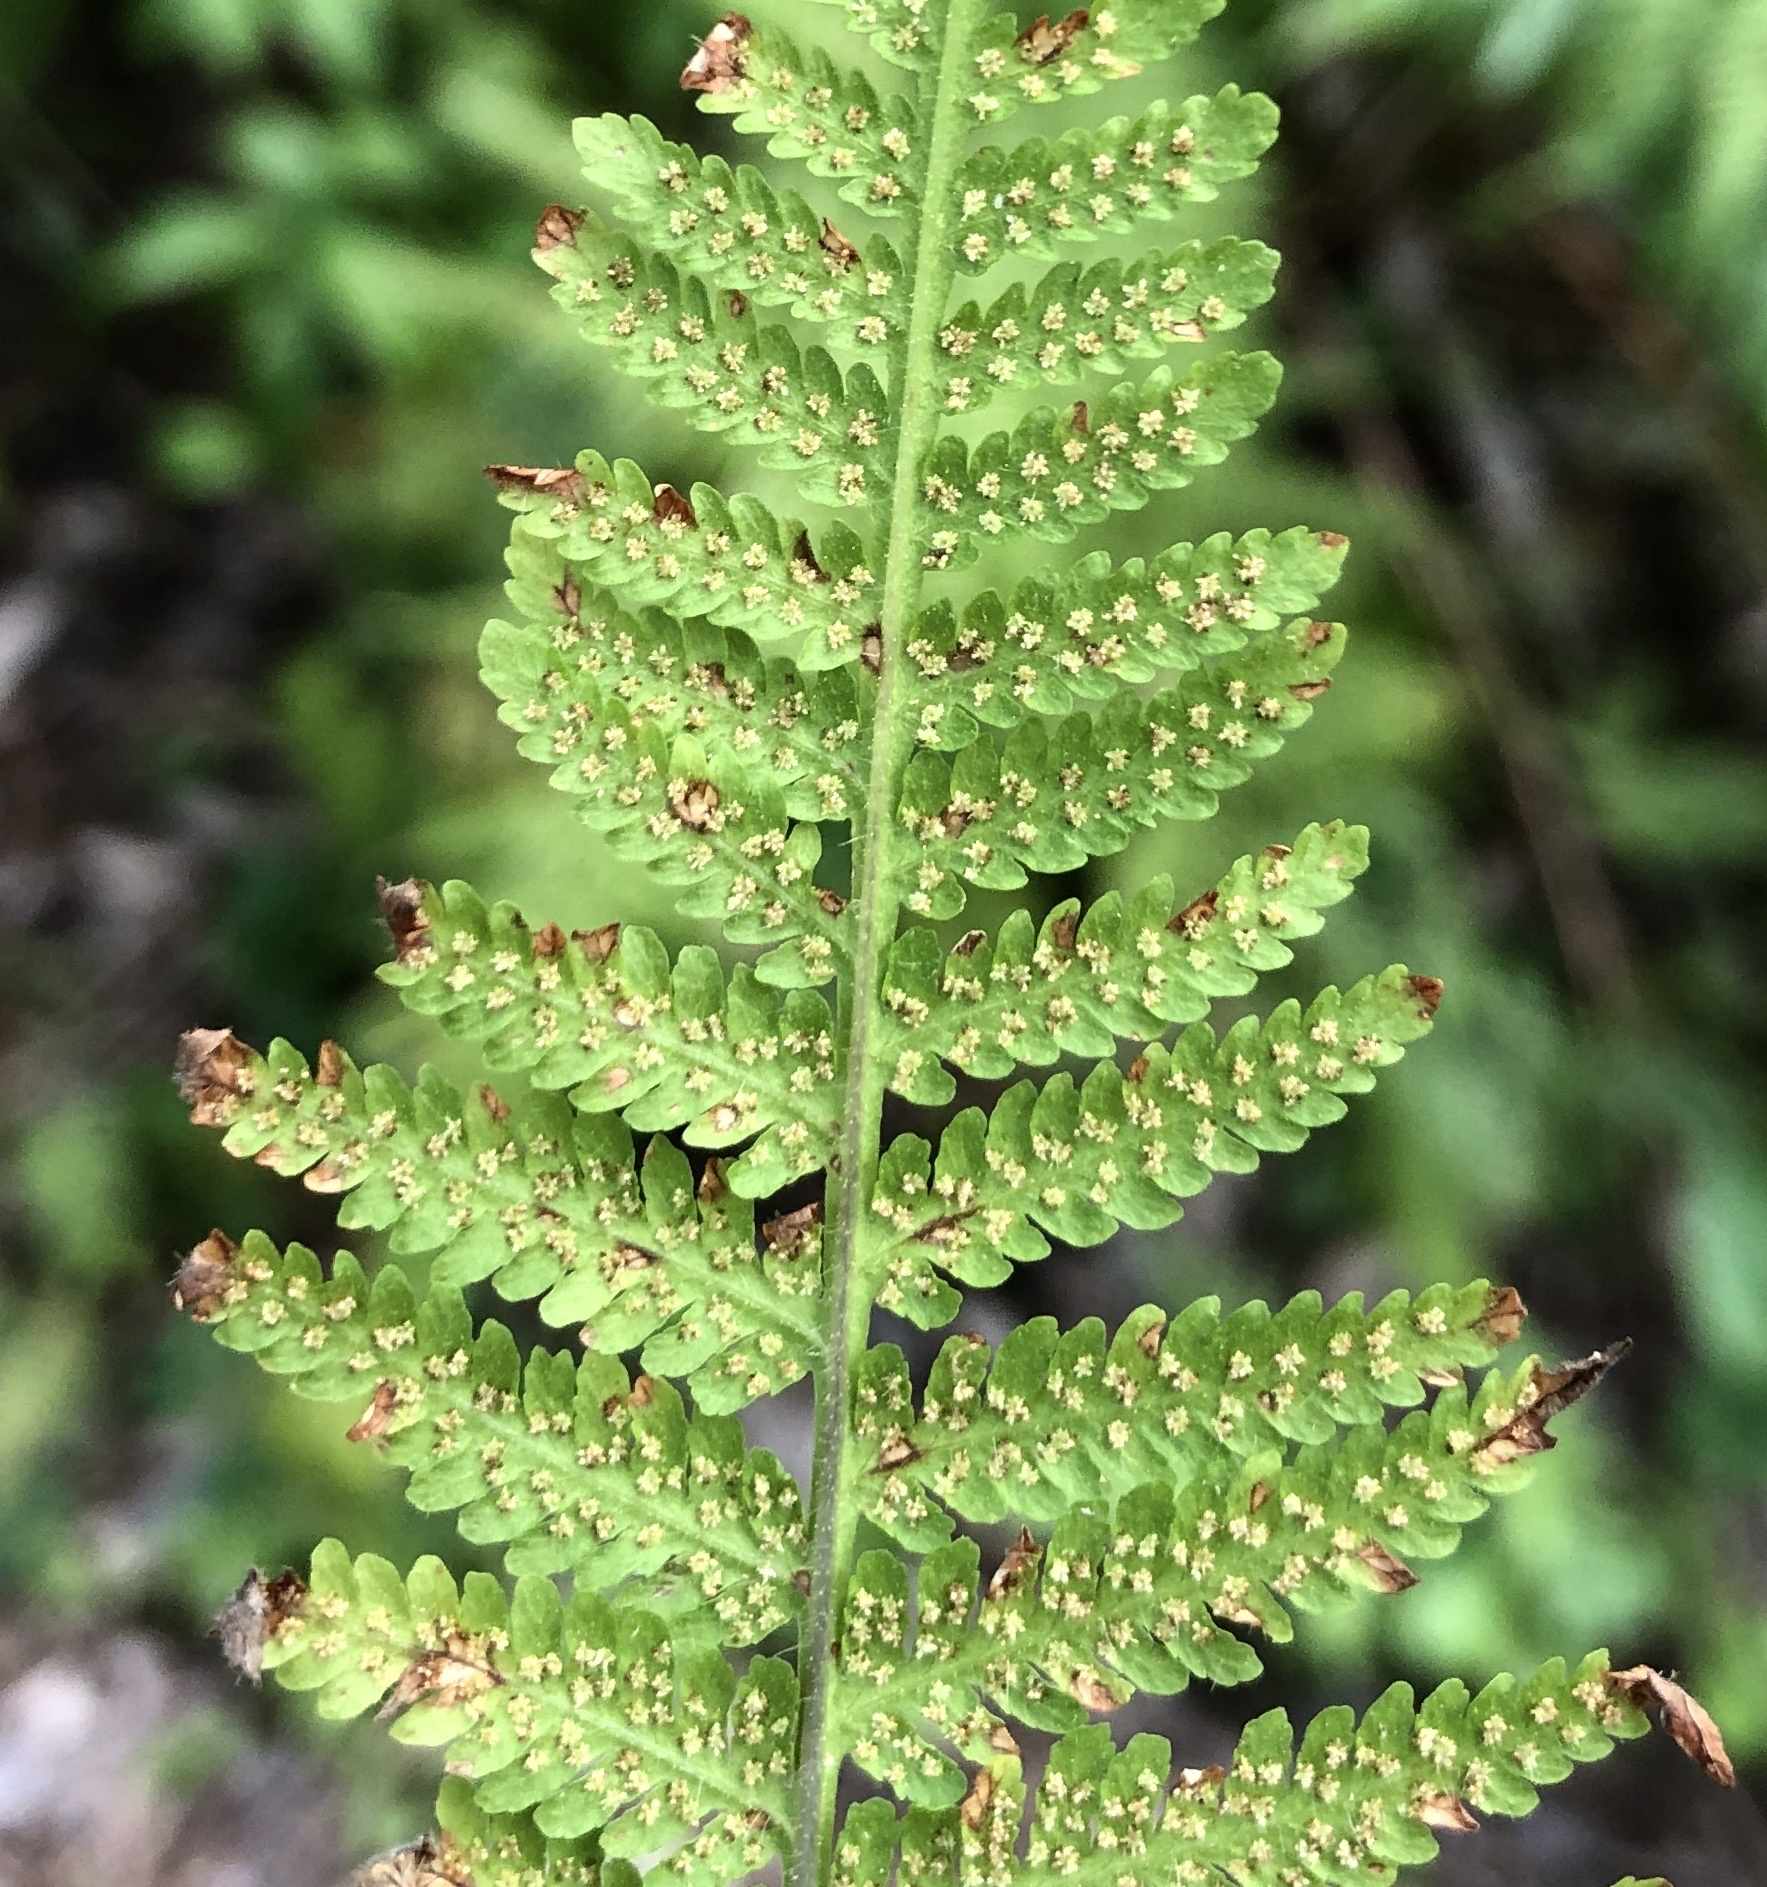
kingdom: Plantae
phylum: Tracheophyta
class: Polypodiopsida
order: Polypodiales
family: Thelypteridaceae
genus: Macrothelypteris
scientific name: Macrothelypteris torresiana
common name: Swordfern
